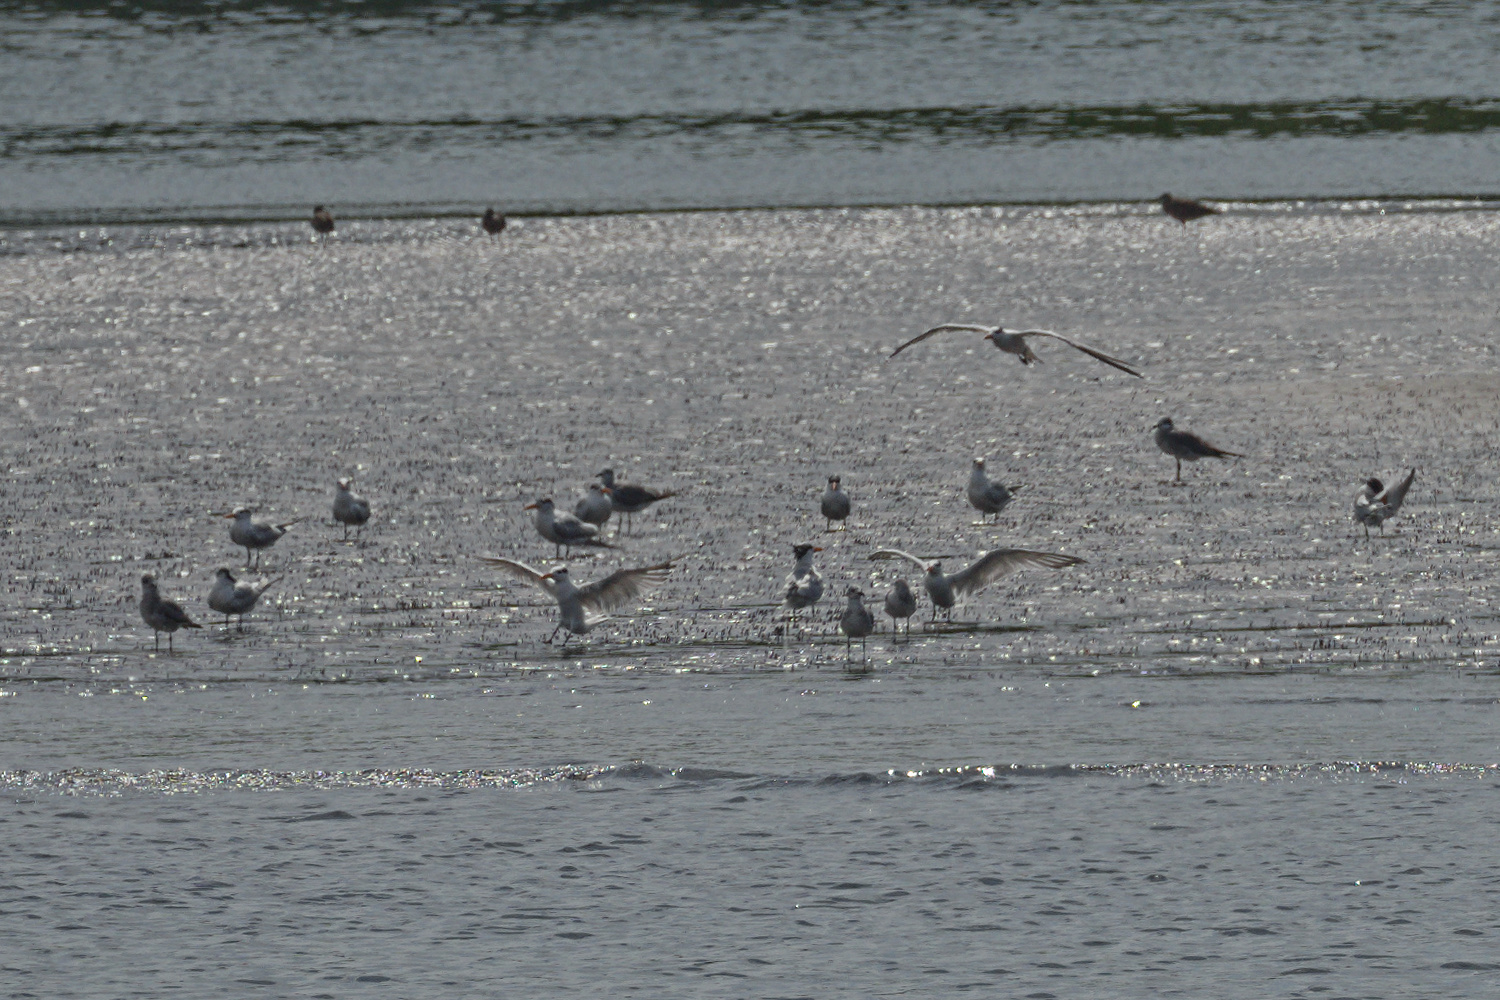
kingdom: Animalia
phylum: Chordata
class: Aves
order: Charadriiformes
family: Laridae
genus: Thalasseus
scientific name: Thalasseus maximus
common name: Royal tern
